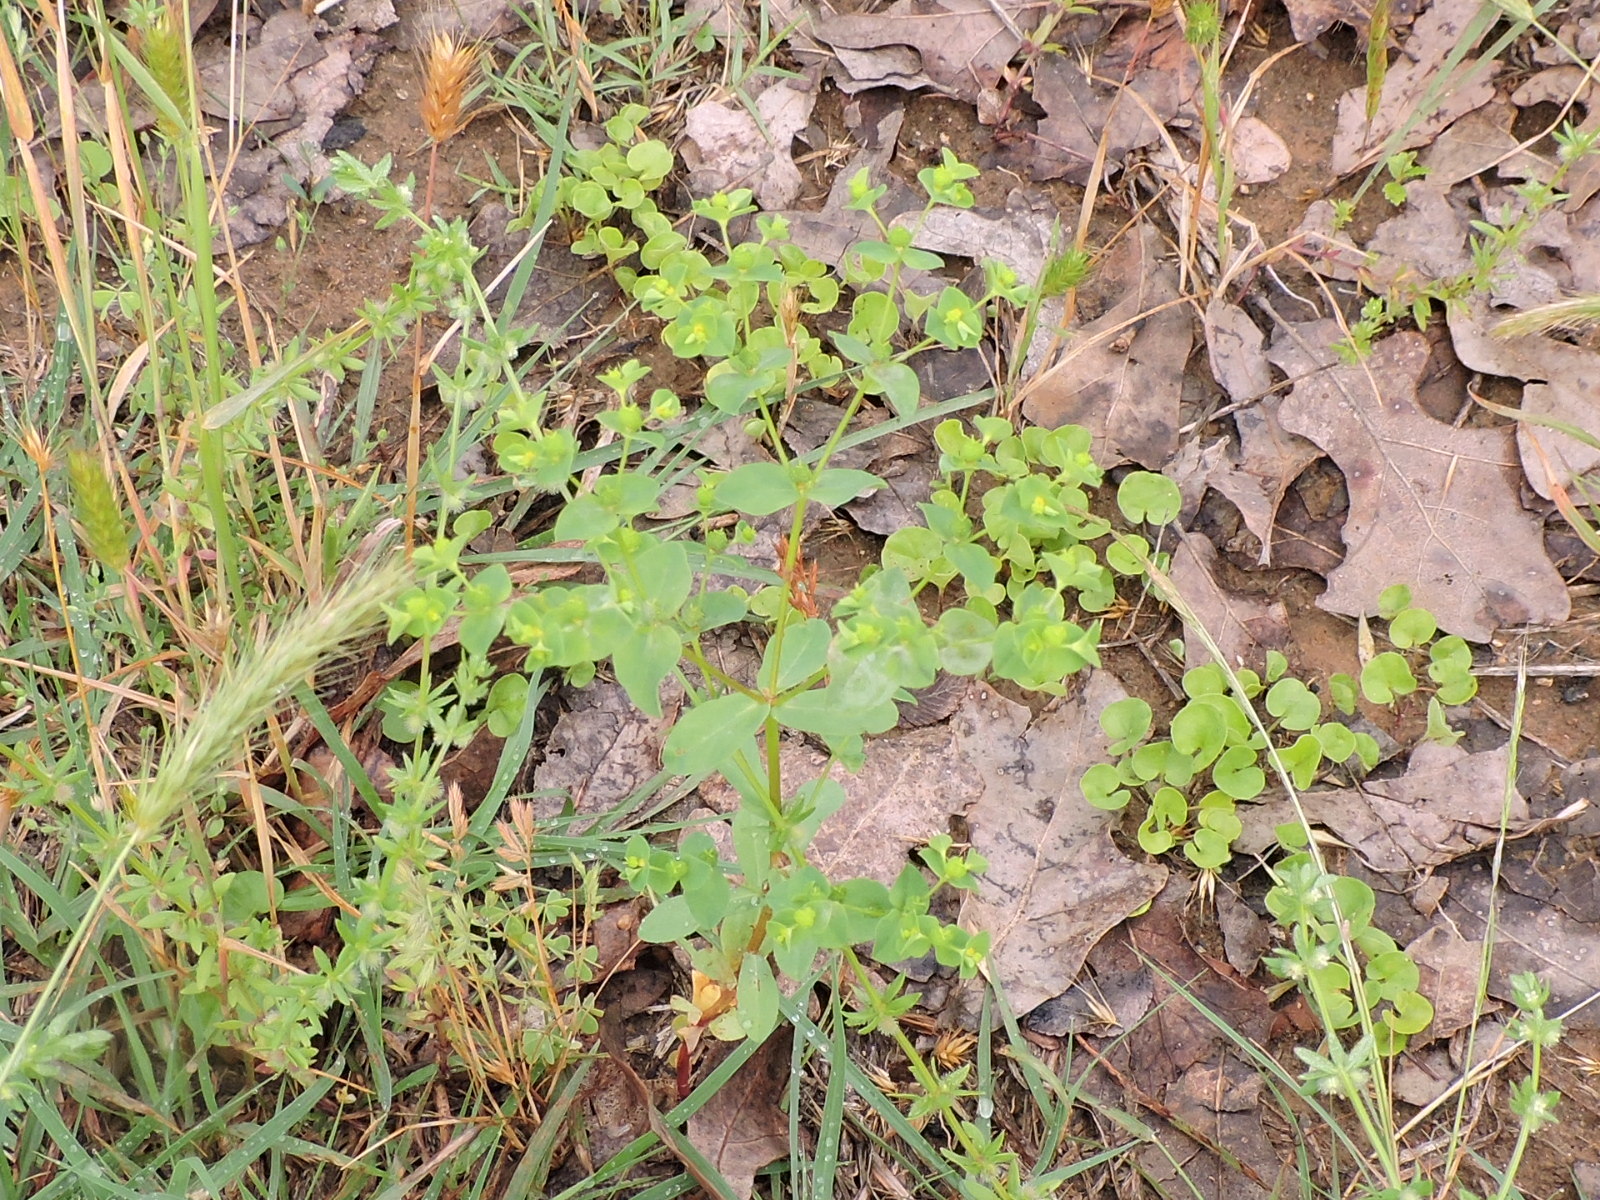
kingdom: Plantae
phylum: Tracheophyta
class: Magnoliopsida
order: Malpighiales
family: Euphorbiaceae
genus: Euphorbia
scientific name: Euphorbia spathulata
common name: Blunt spurge
